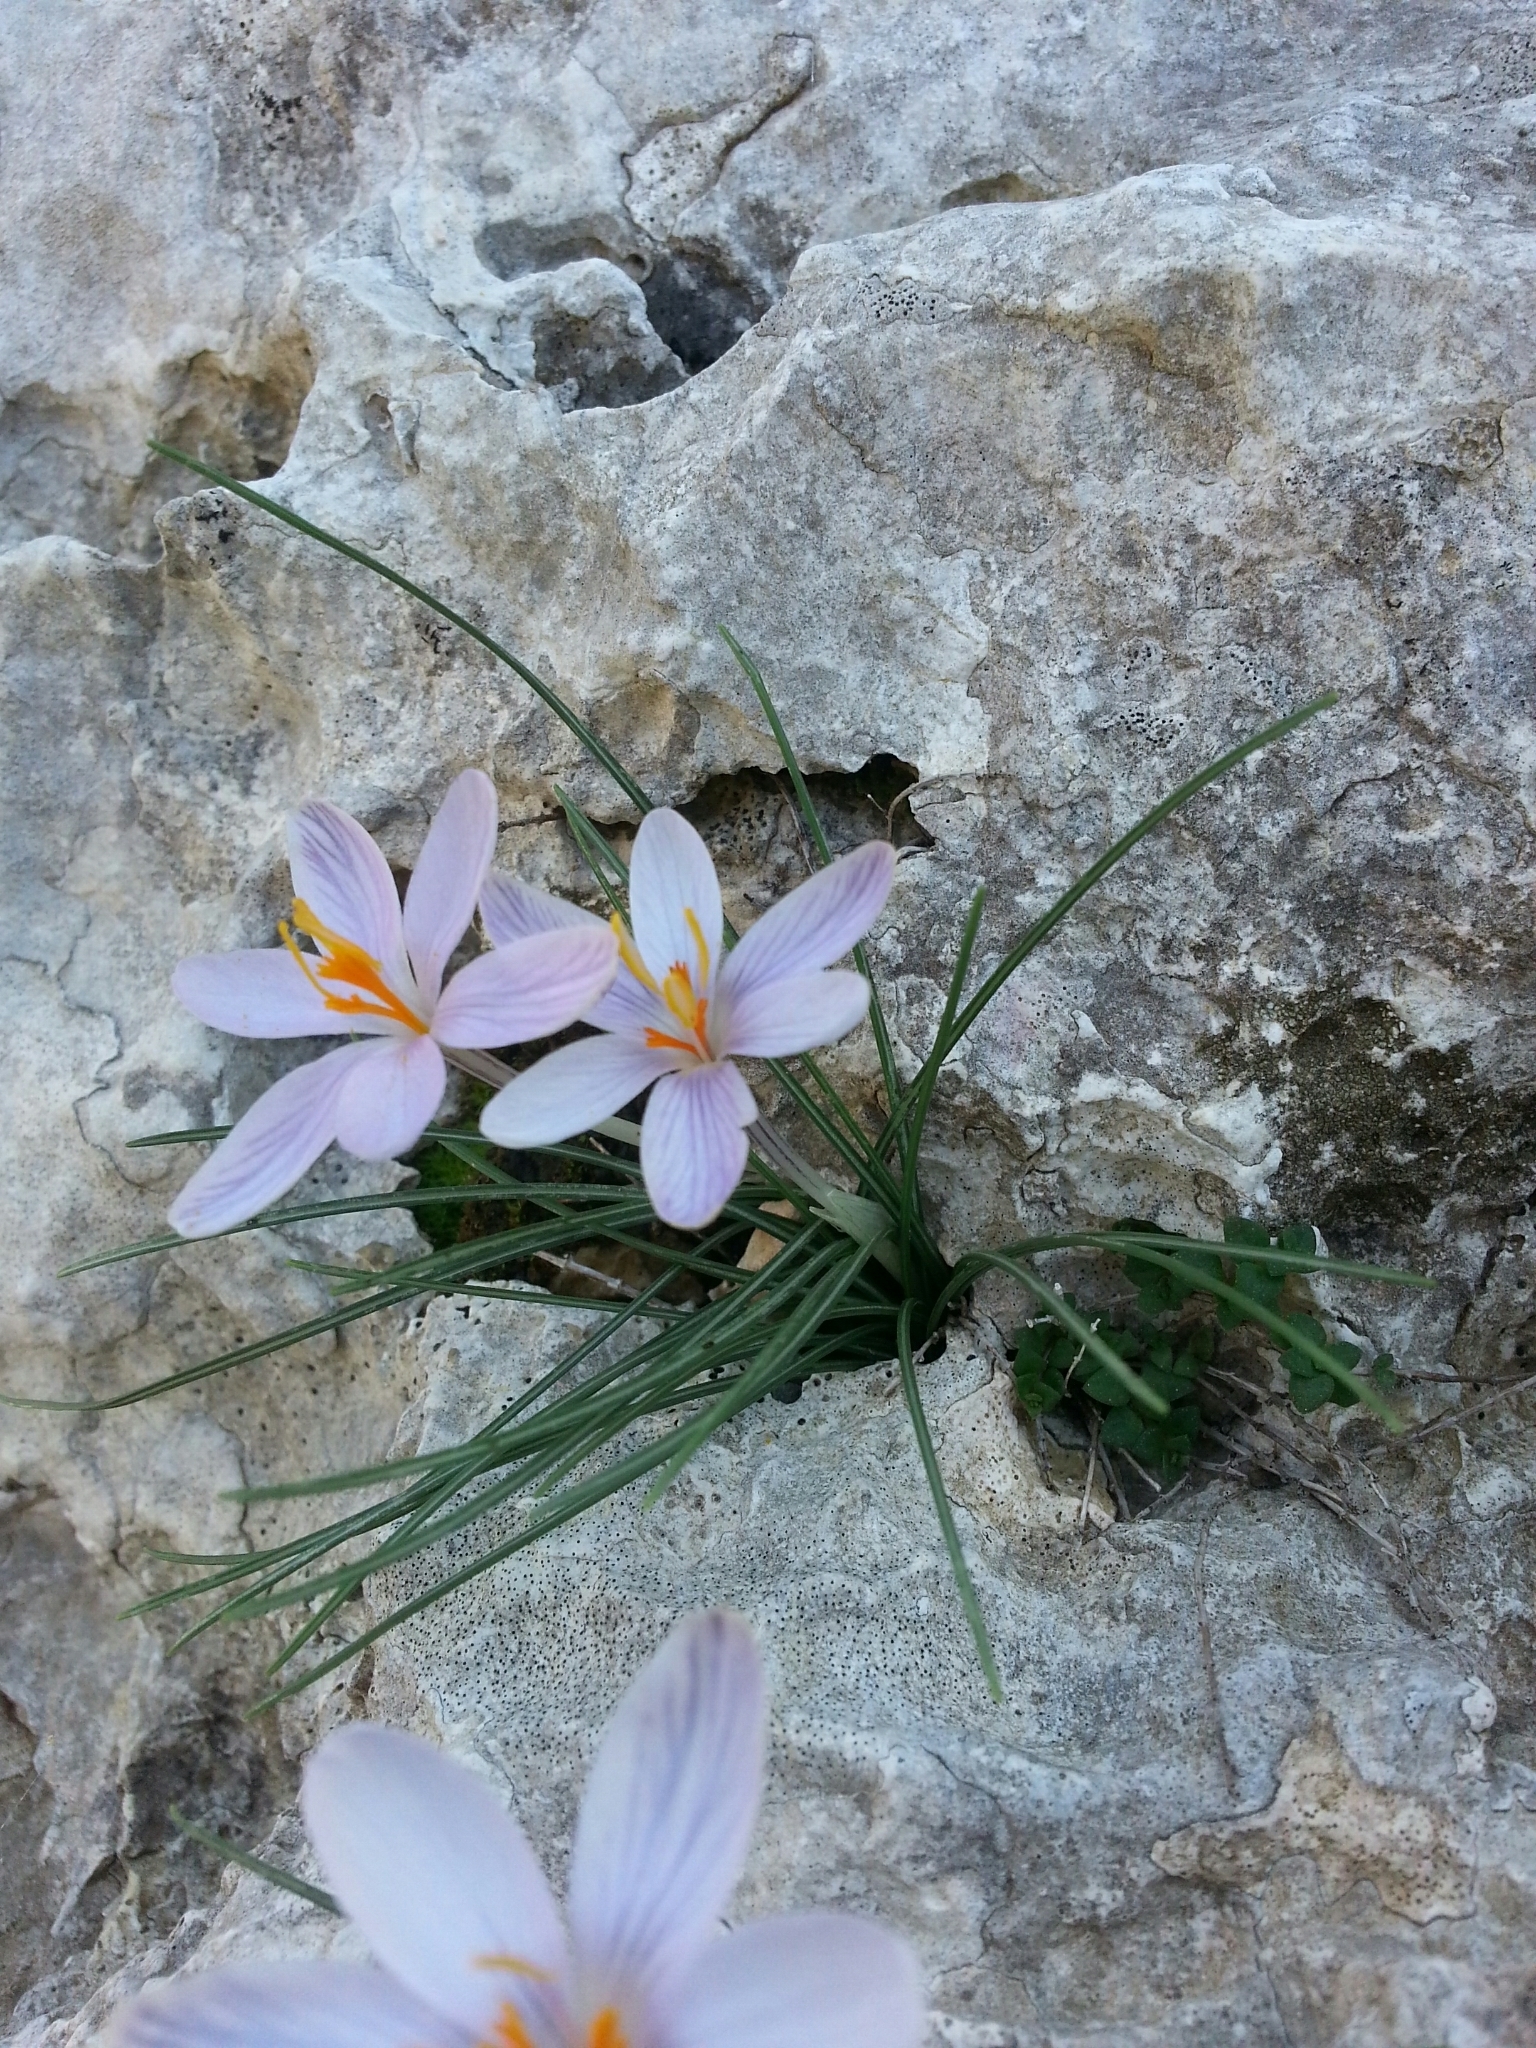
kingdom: Plantae
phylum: Tracheophyta
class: Liliopsida
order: Asparagales
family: Iridaceae
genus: Crocus
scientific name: Crocus cambessedesii
